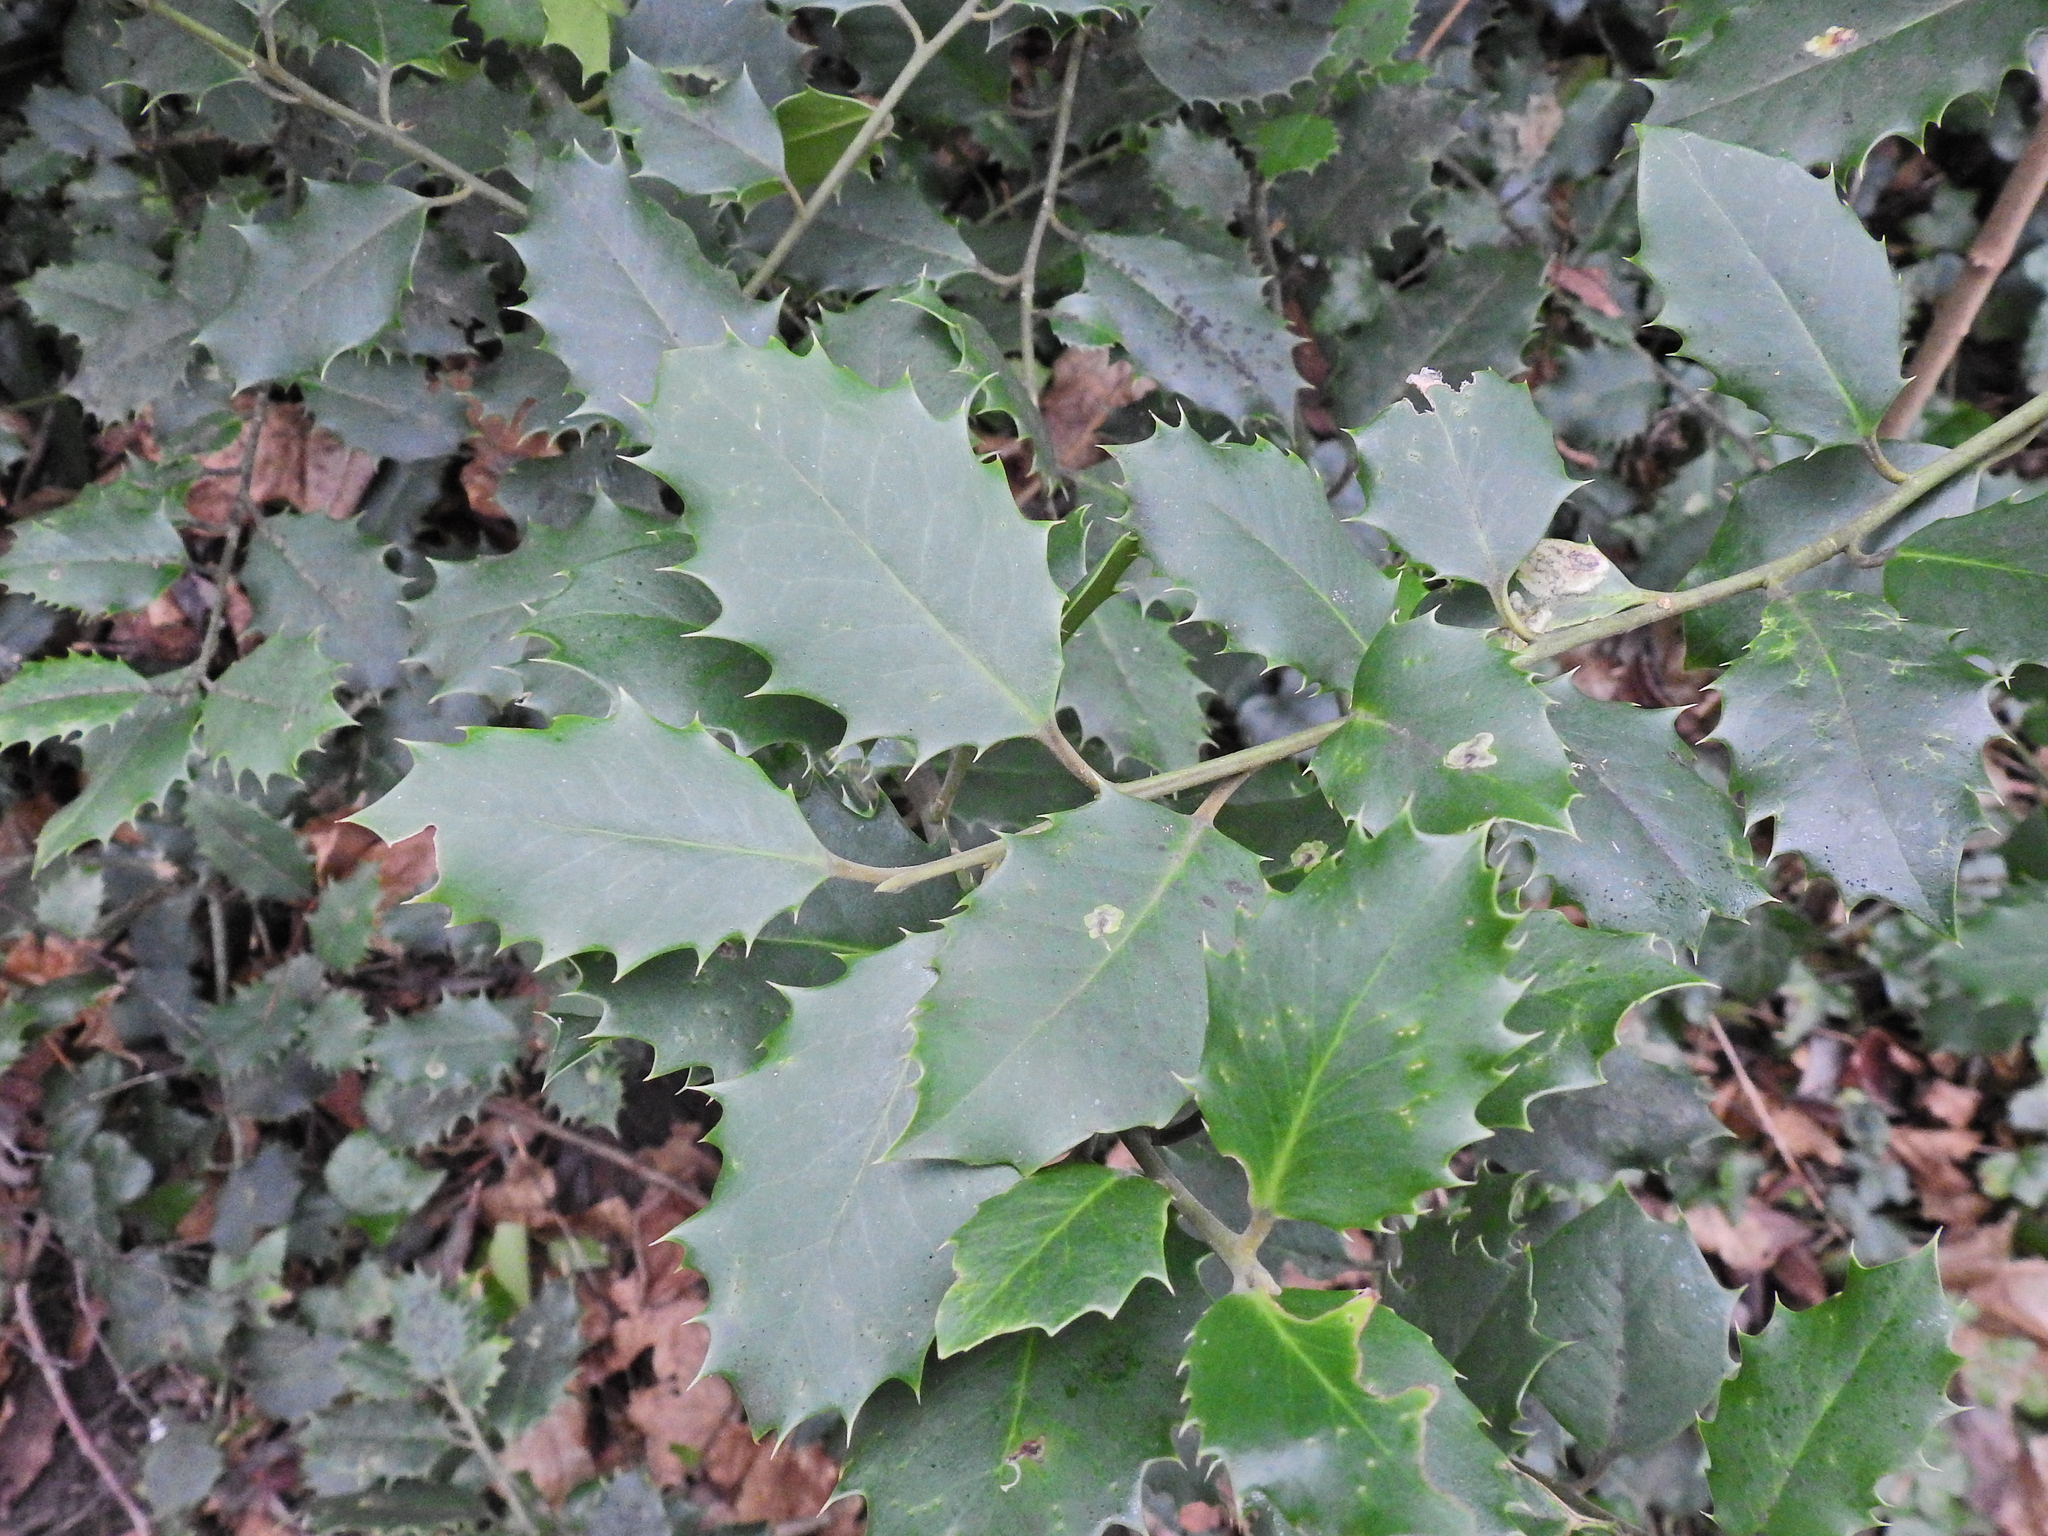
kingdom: Plantae
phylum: Tracheophyta
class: Magnoliopsida
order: Aquifoliales
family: Aquifoliaceae
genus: Ilex
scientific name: Ilex aquifolium
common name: English holly
